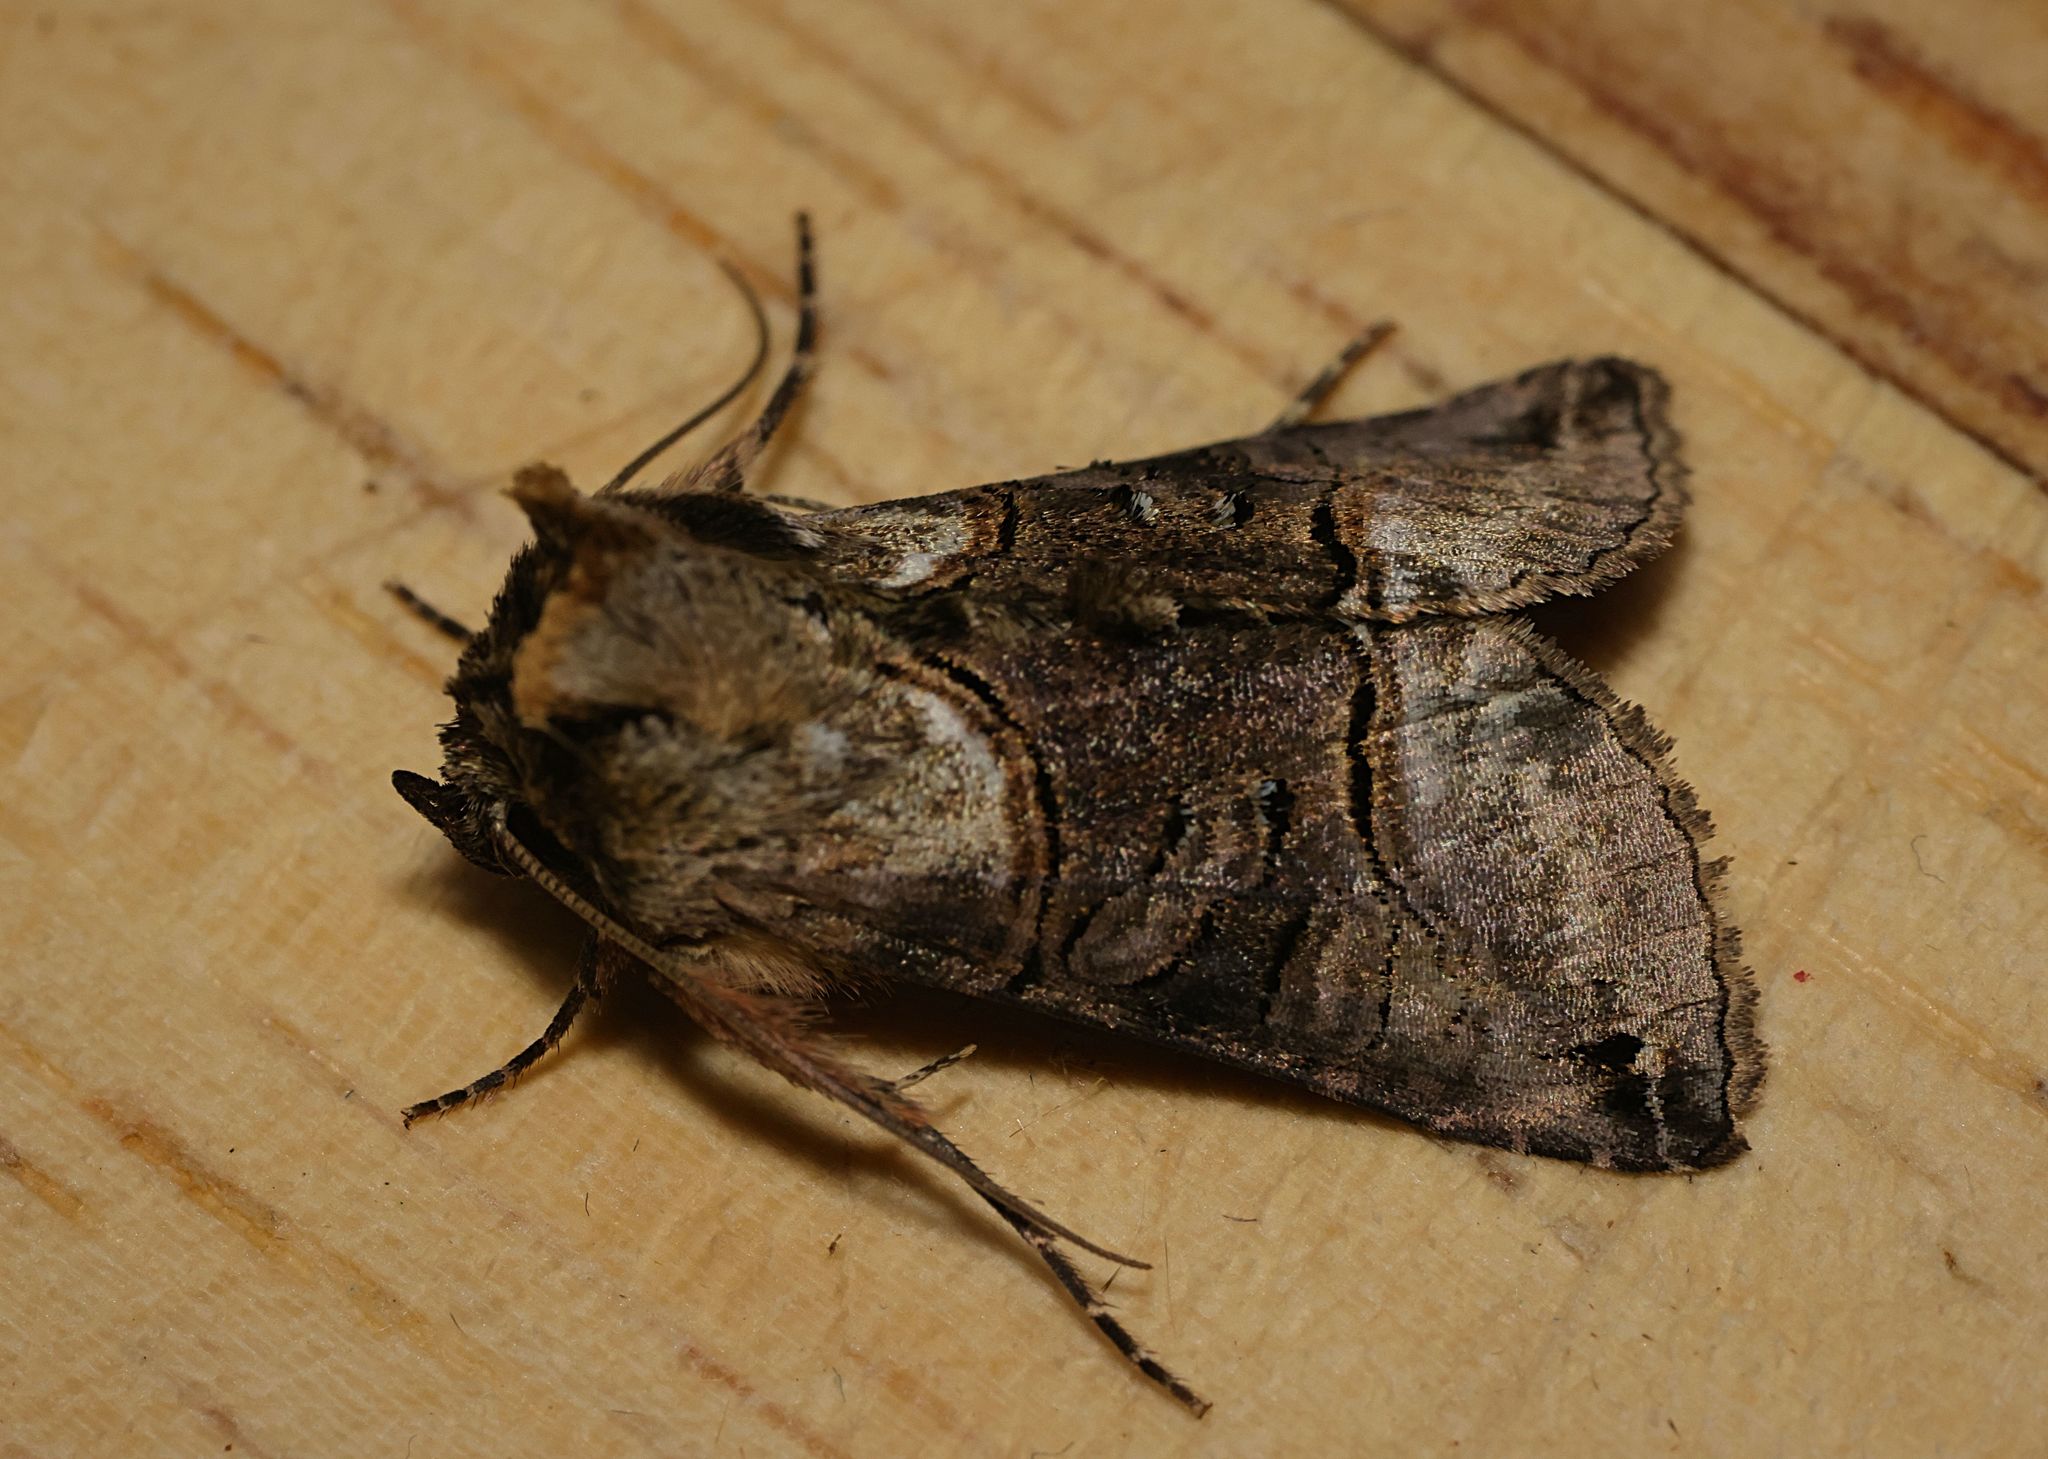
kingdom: Animalia
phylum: Arthropoda
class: Insecta
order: Lepidoptera
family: Noctuidae
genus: Abrostola
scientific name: Abrostola tripartita
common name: Spectacle
